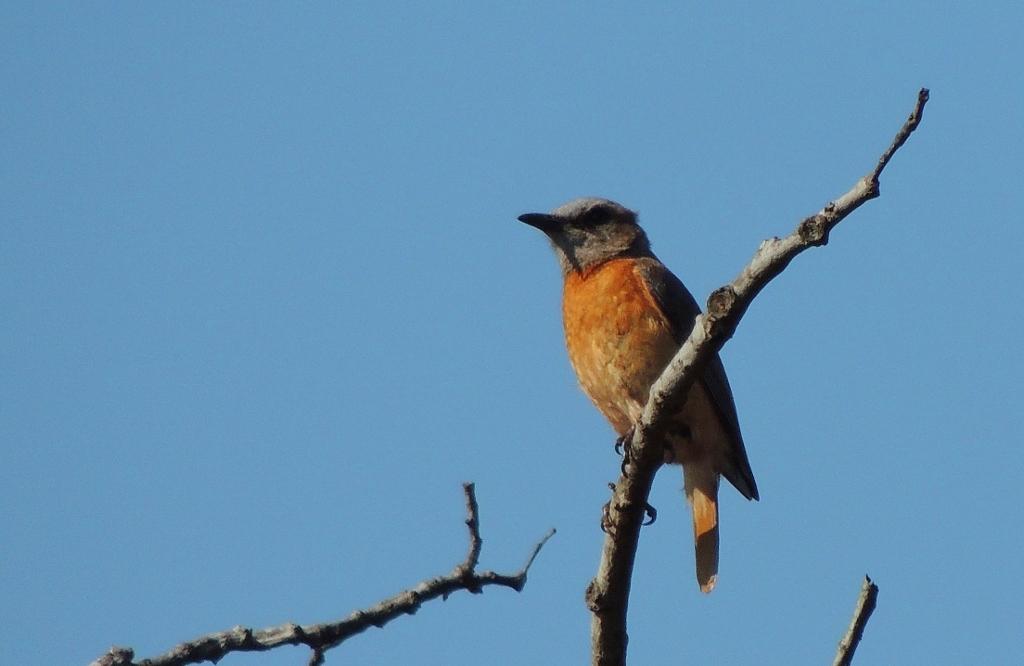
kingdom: Animalia
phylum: Chordata
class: Aves
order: Passeriformes
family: Muscicapidae
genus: Monticola
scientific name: Monticola angolensis
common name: Miombo rock thrush
